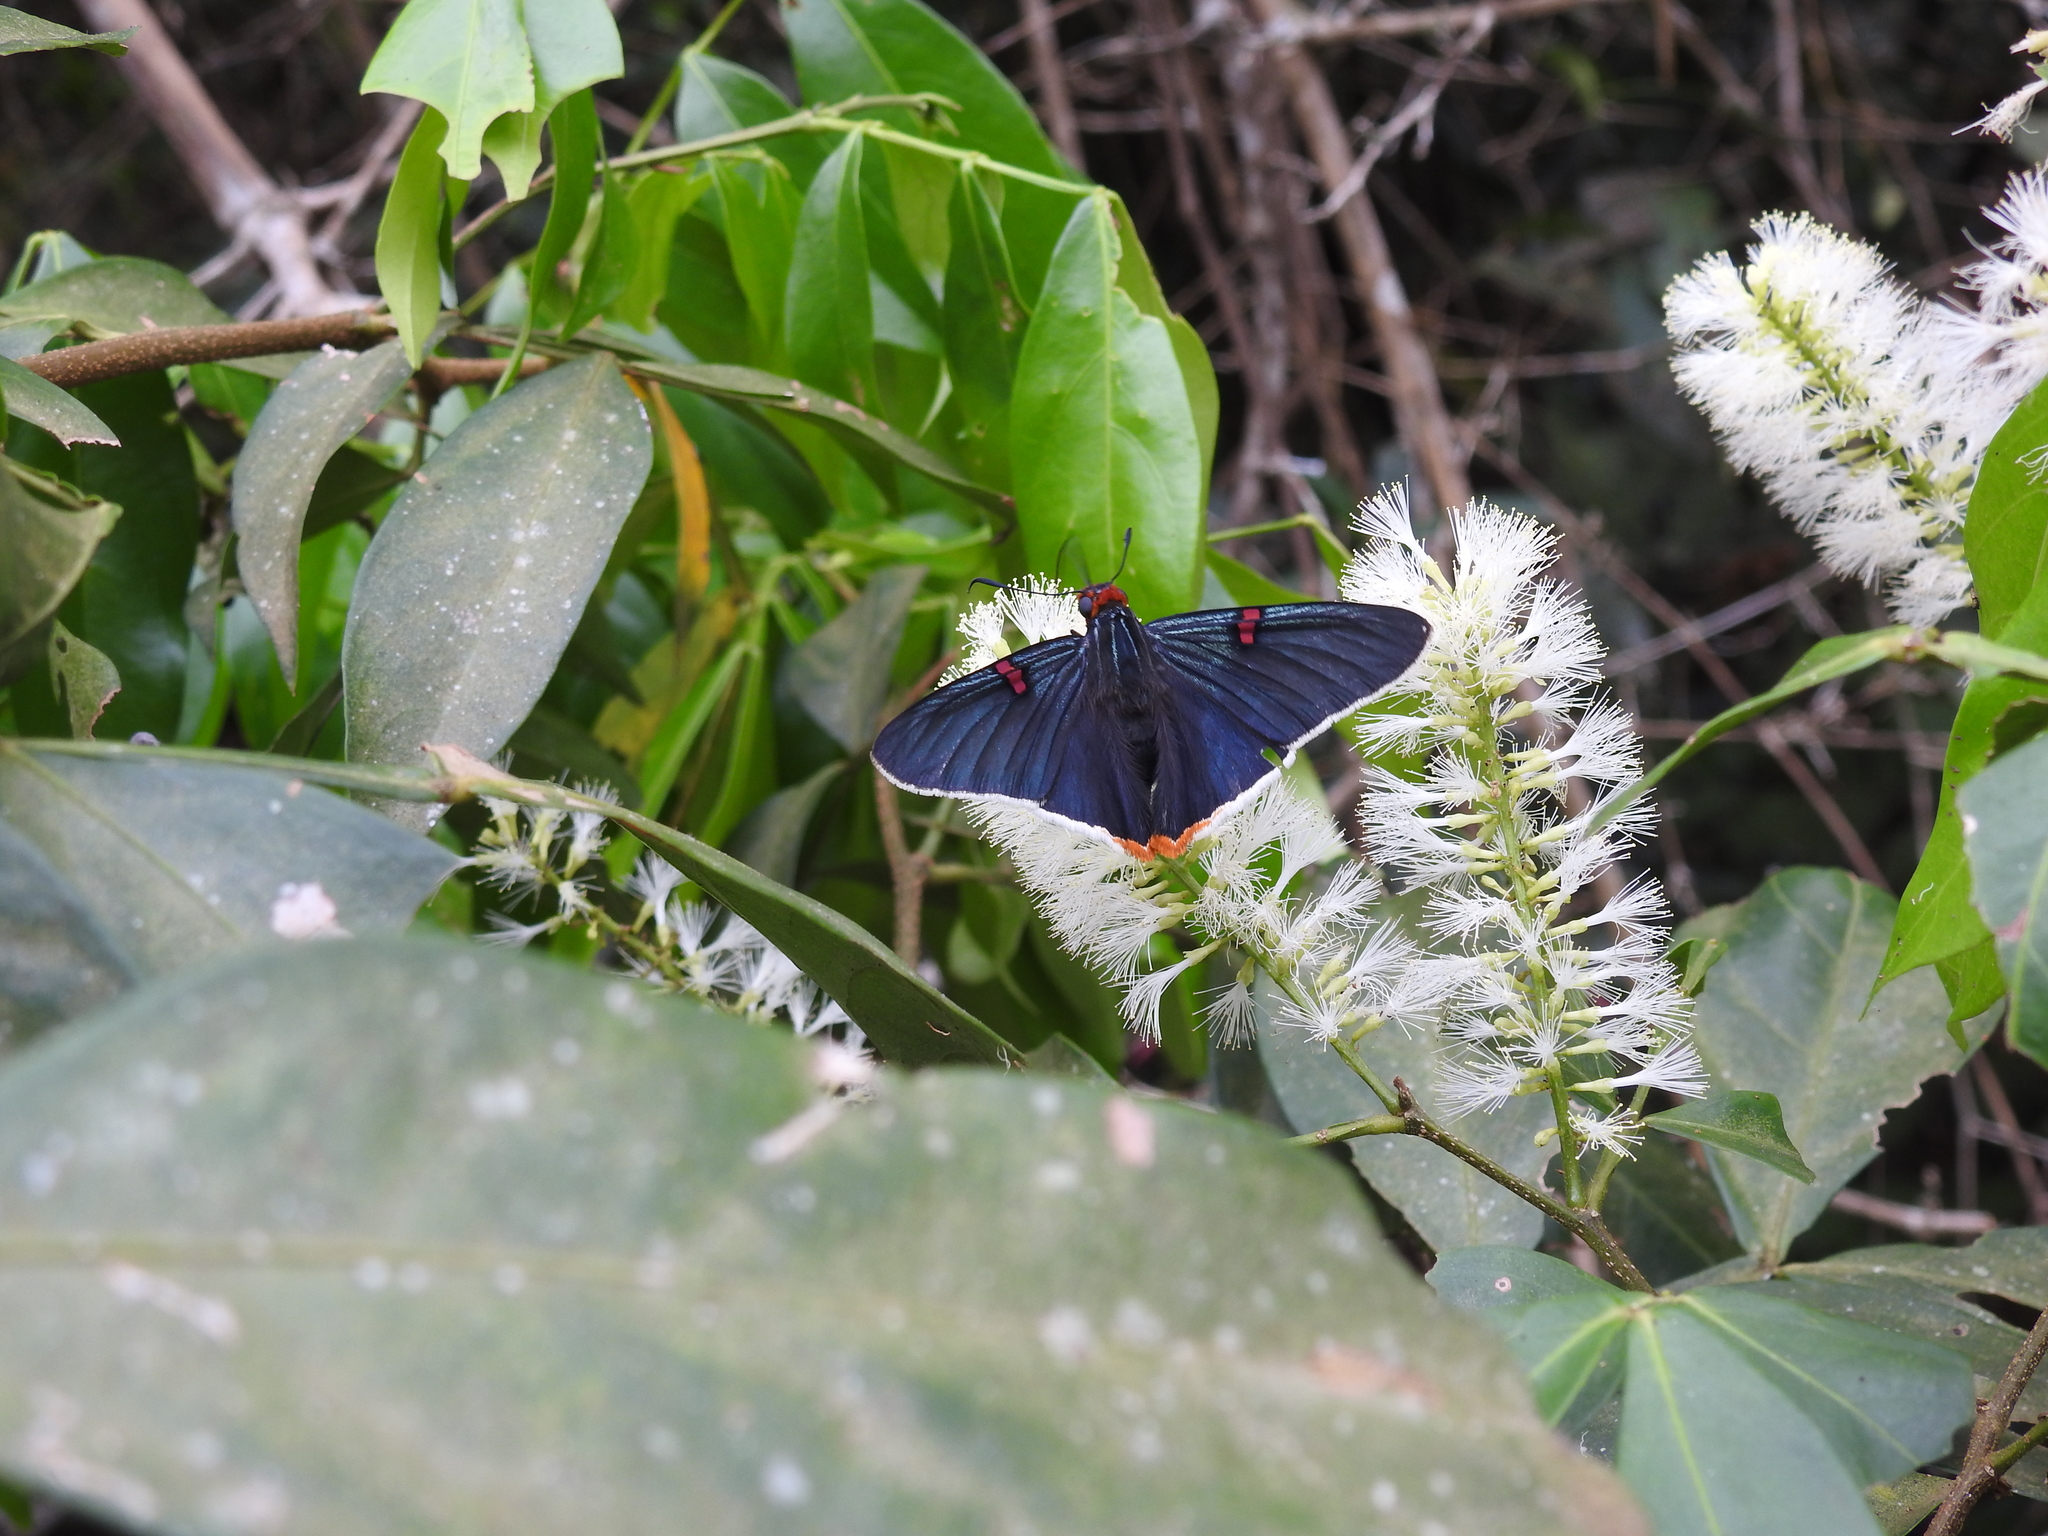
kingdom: Animalia
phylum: Arthropoda
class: Insecta
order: Lepidoptera
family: Hesperiidae
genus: Phocides
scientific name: Phocides polybius
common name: Guava skipper
